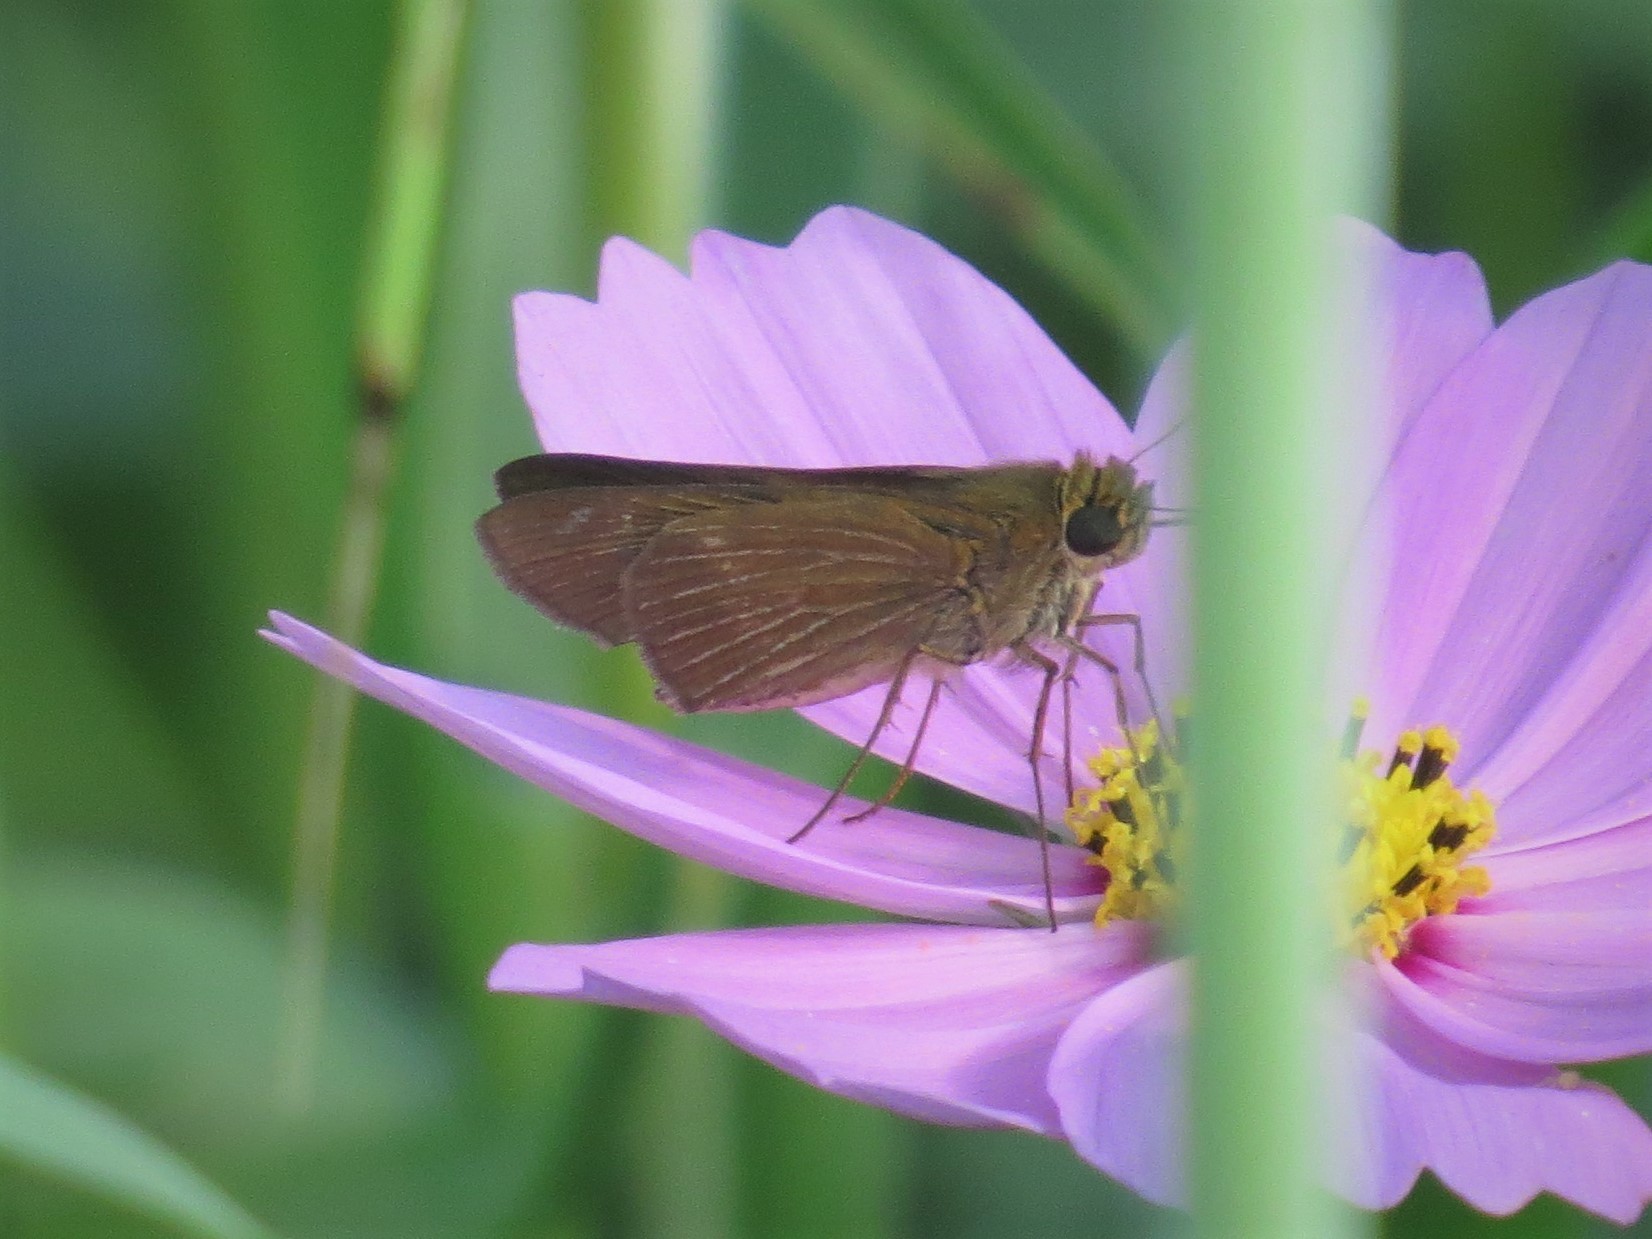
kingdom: Animalia
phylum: Arthropoda
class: Insecta
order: Lepidoptera
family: Hesperiidae
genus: Panoquina
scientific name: Panoquina ocola
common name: Ocola skipper
